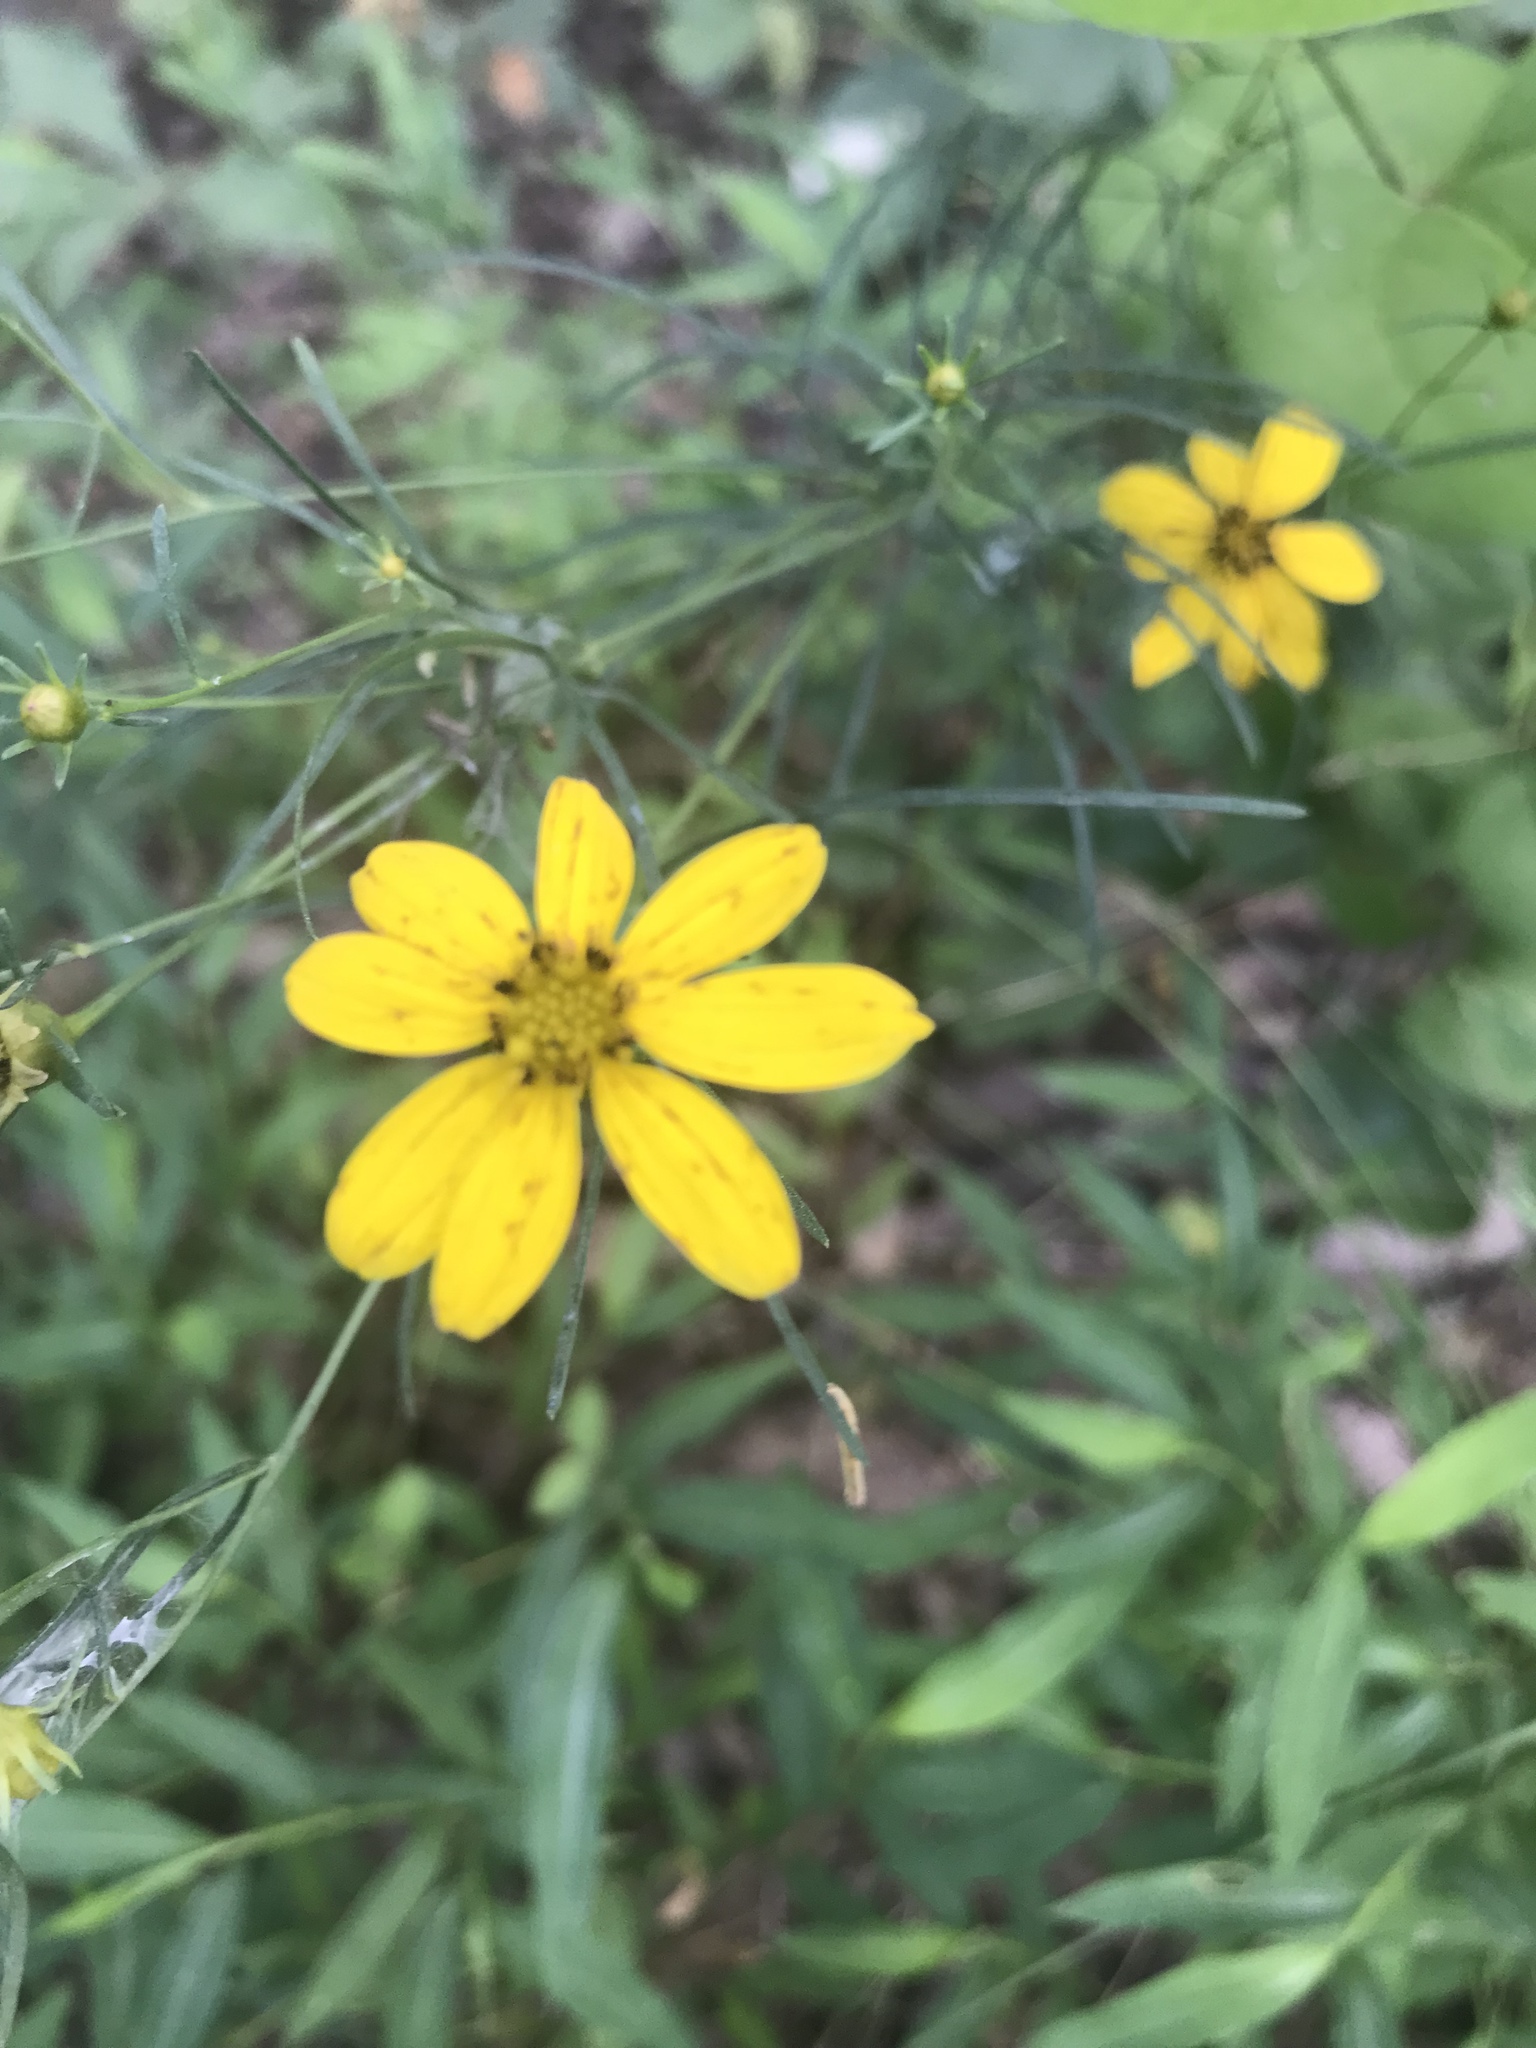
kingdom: Plantae
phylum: Tracheophyta
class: Magnoliopsida
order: Asterales
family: Asteraceae
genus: Coreopsis
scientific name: Coreopsis verticillata
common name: Whorled tickseed
